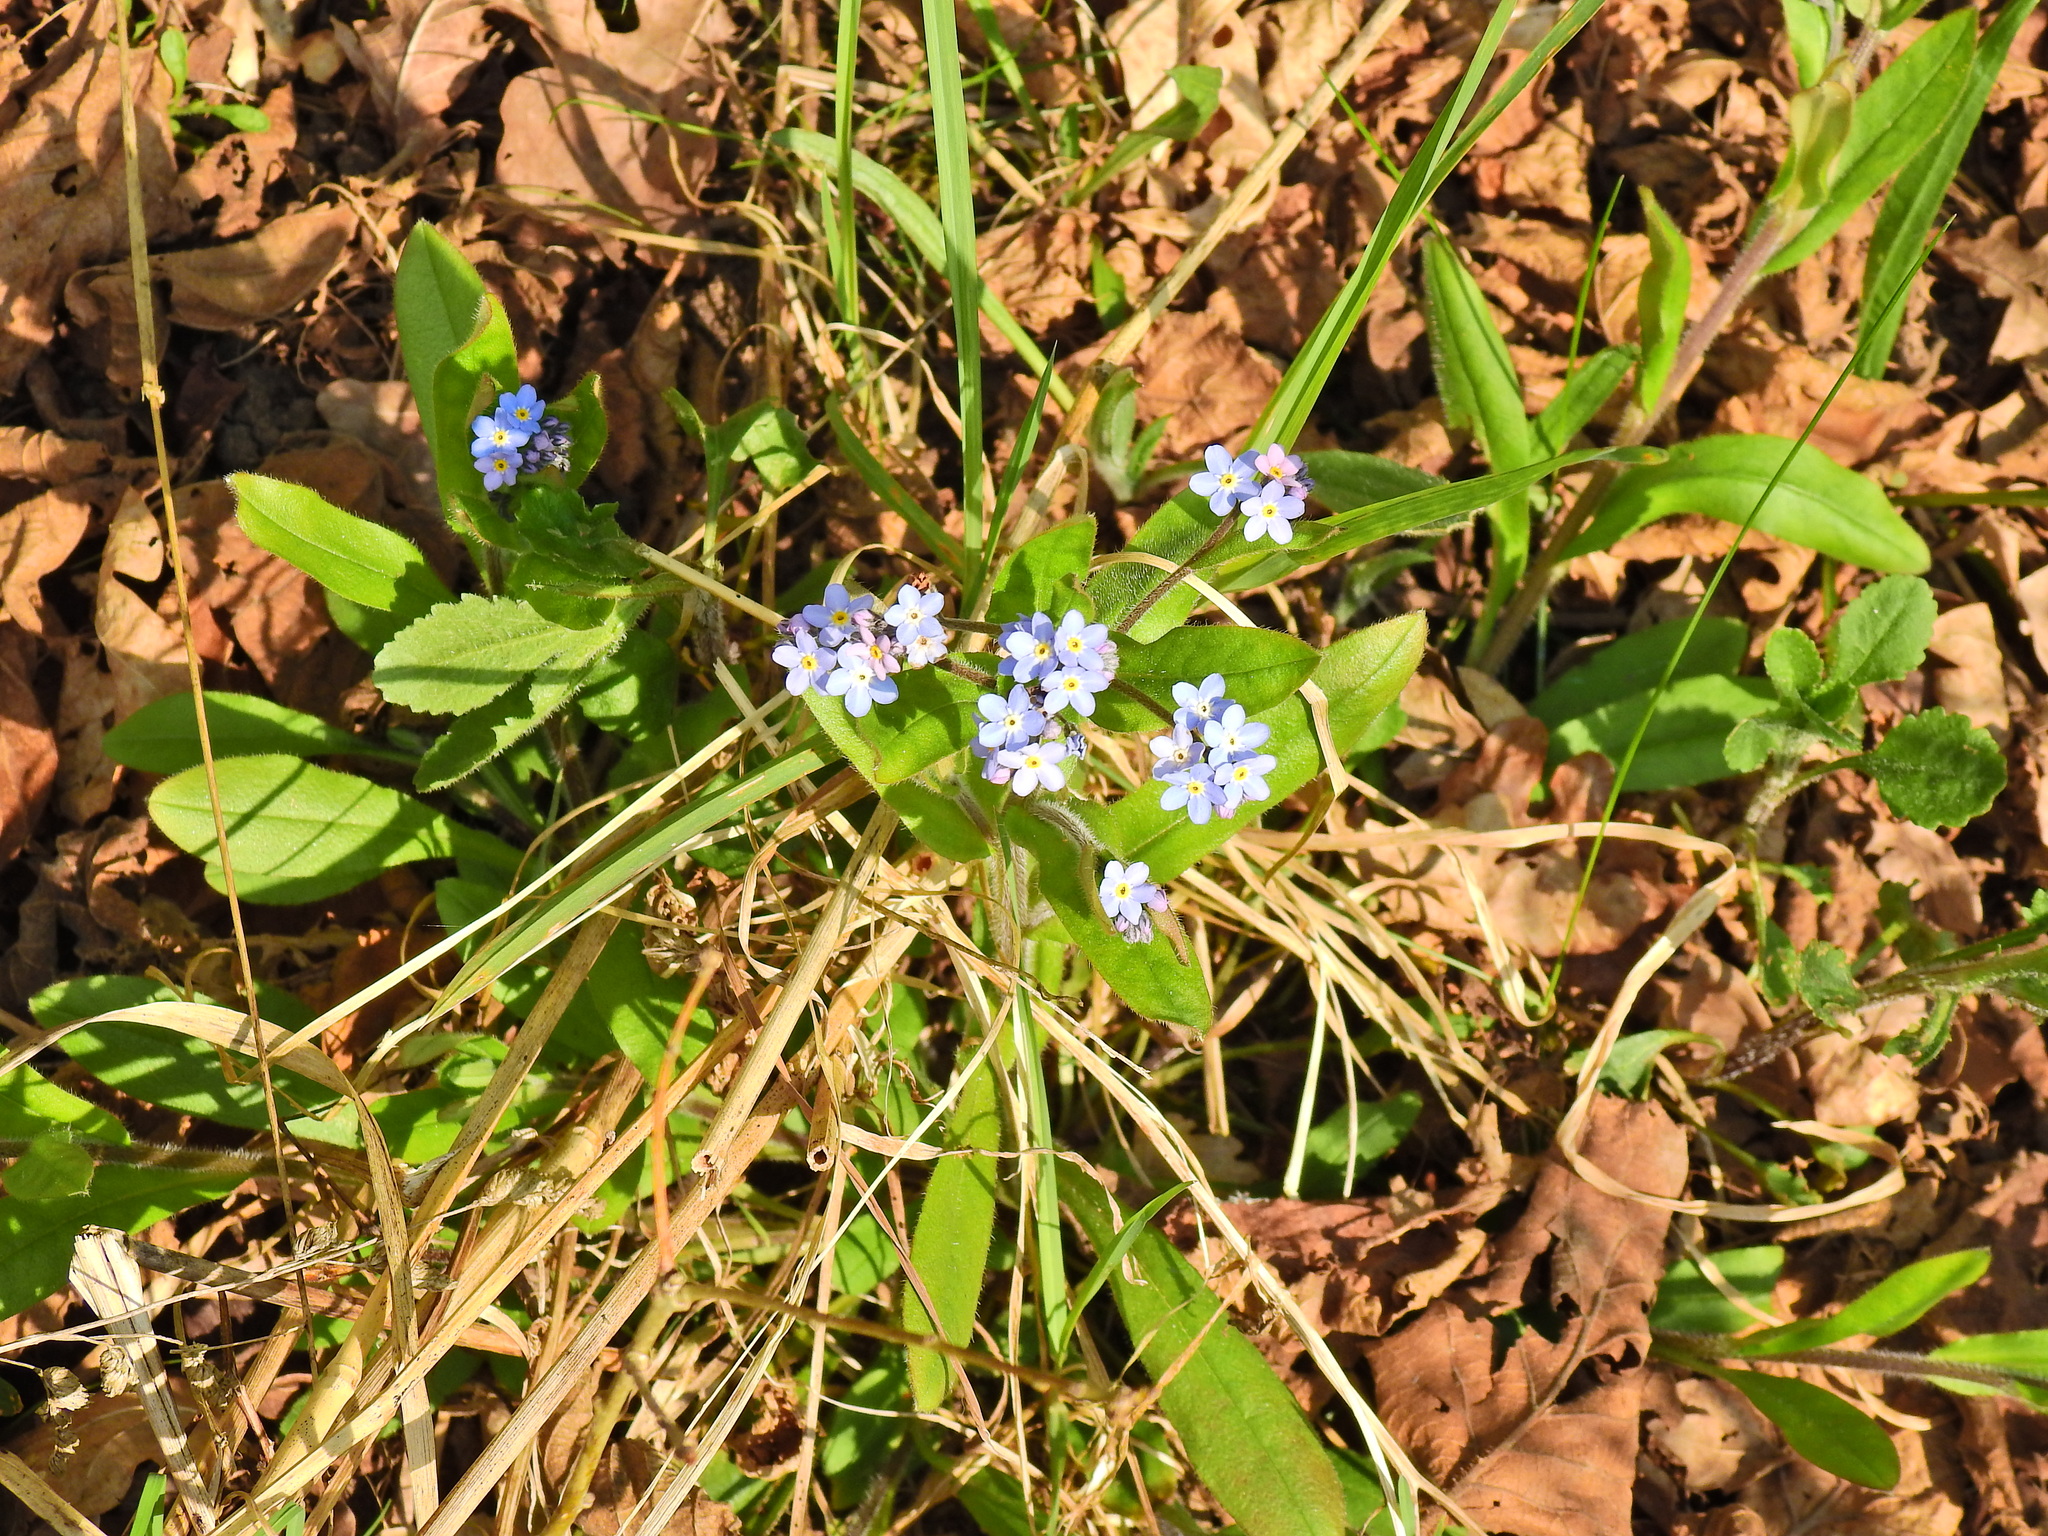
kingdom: Plantae
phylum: Tracheophyta
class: Magnoliopsida
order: Boraginales
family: Boraginaceae
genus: Myosotis
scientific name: Myosotis sylvatica
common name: Wood forget-me-not
